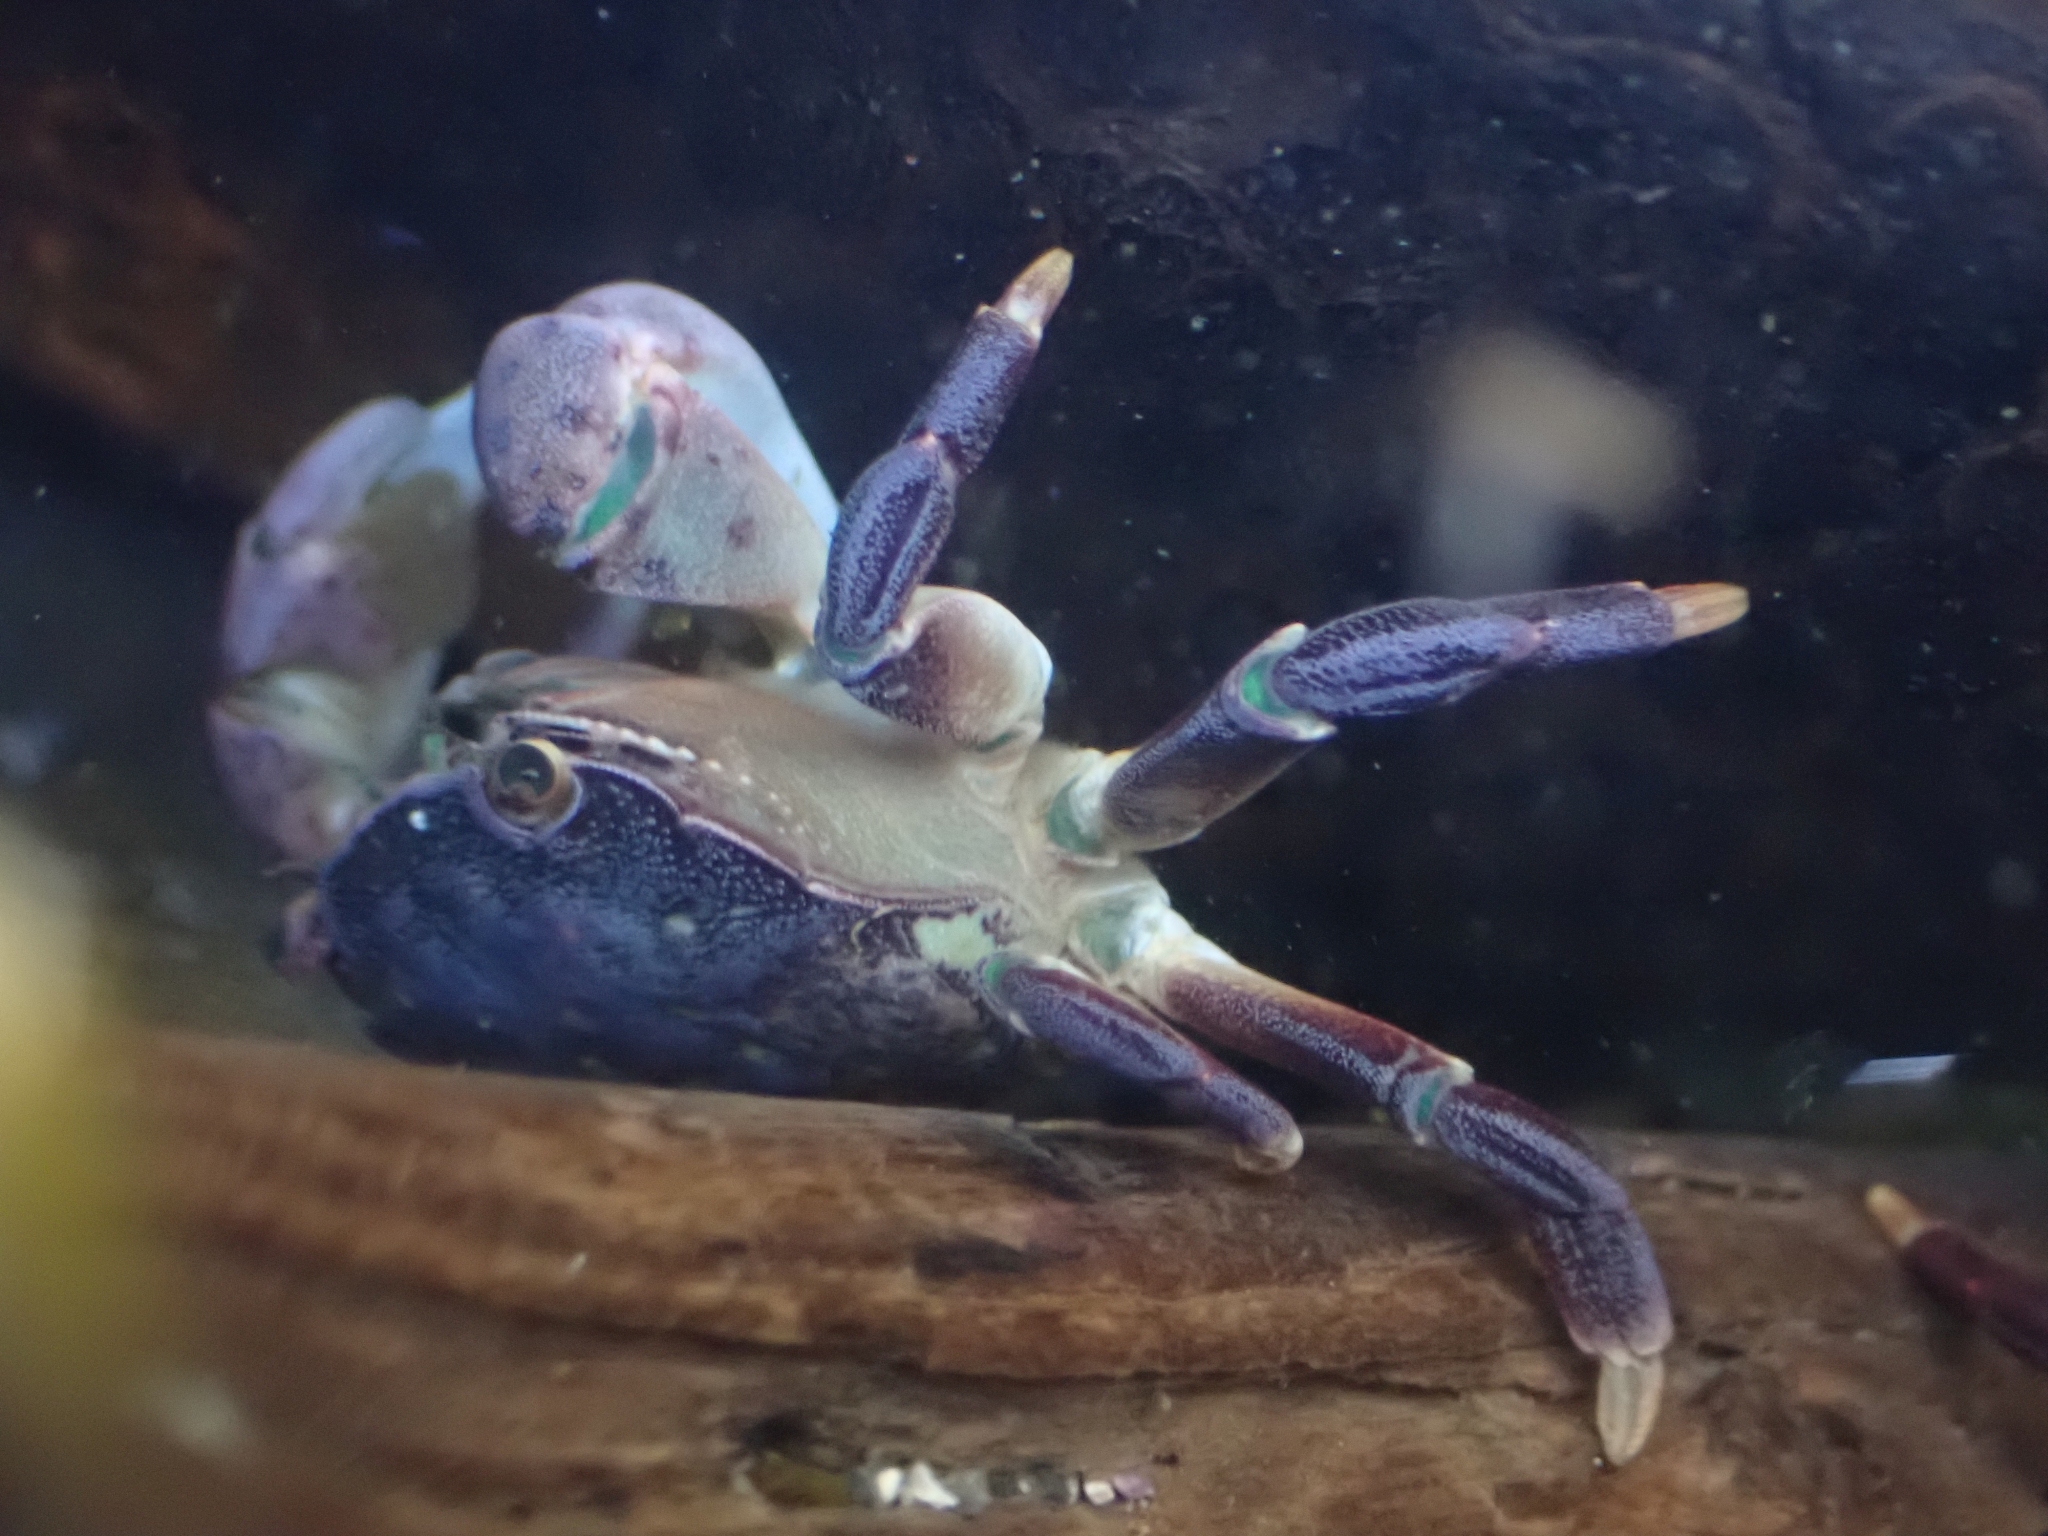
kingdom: Animalia
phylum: Arthropoda
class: Malacostraca
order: Decapoda
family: Varunidae
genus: Hemigrapsus
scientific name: Hemigrapsus nudus
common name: Purple shore crab
